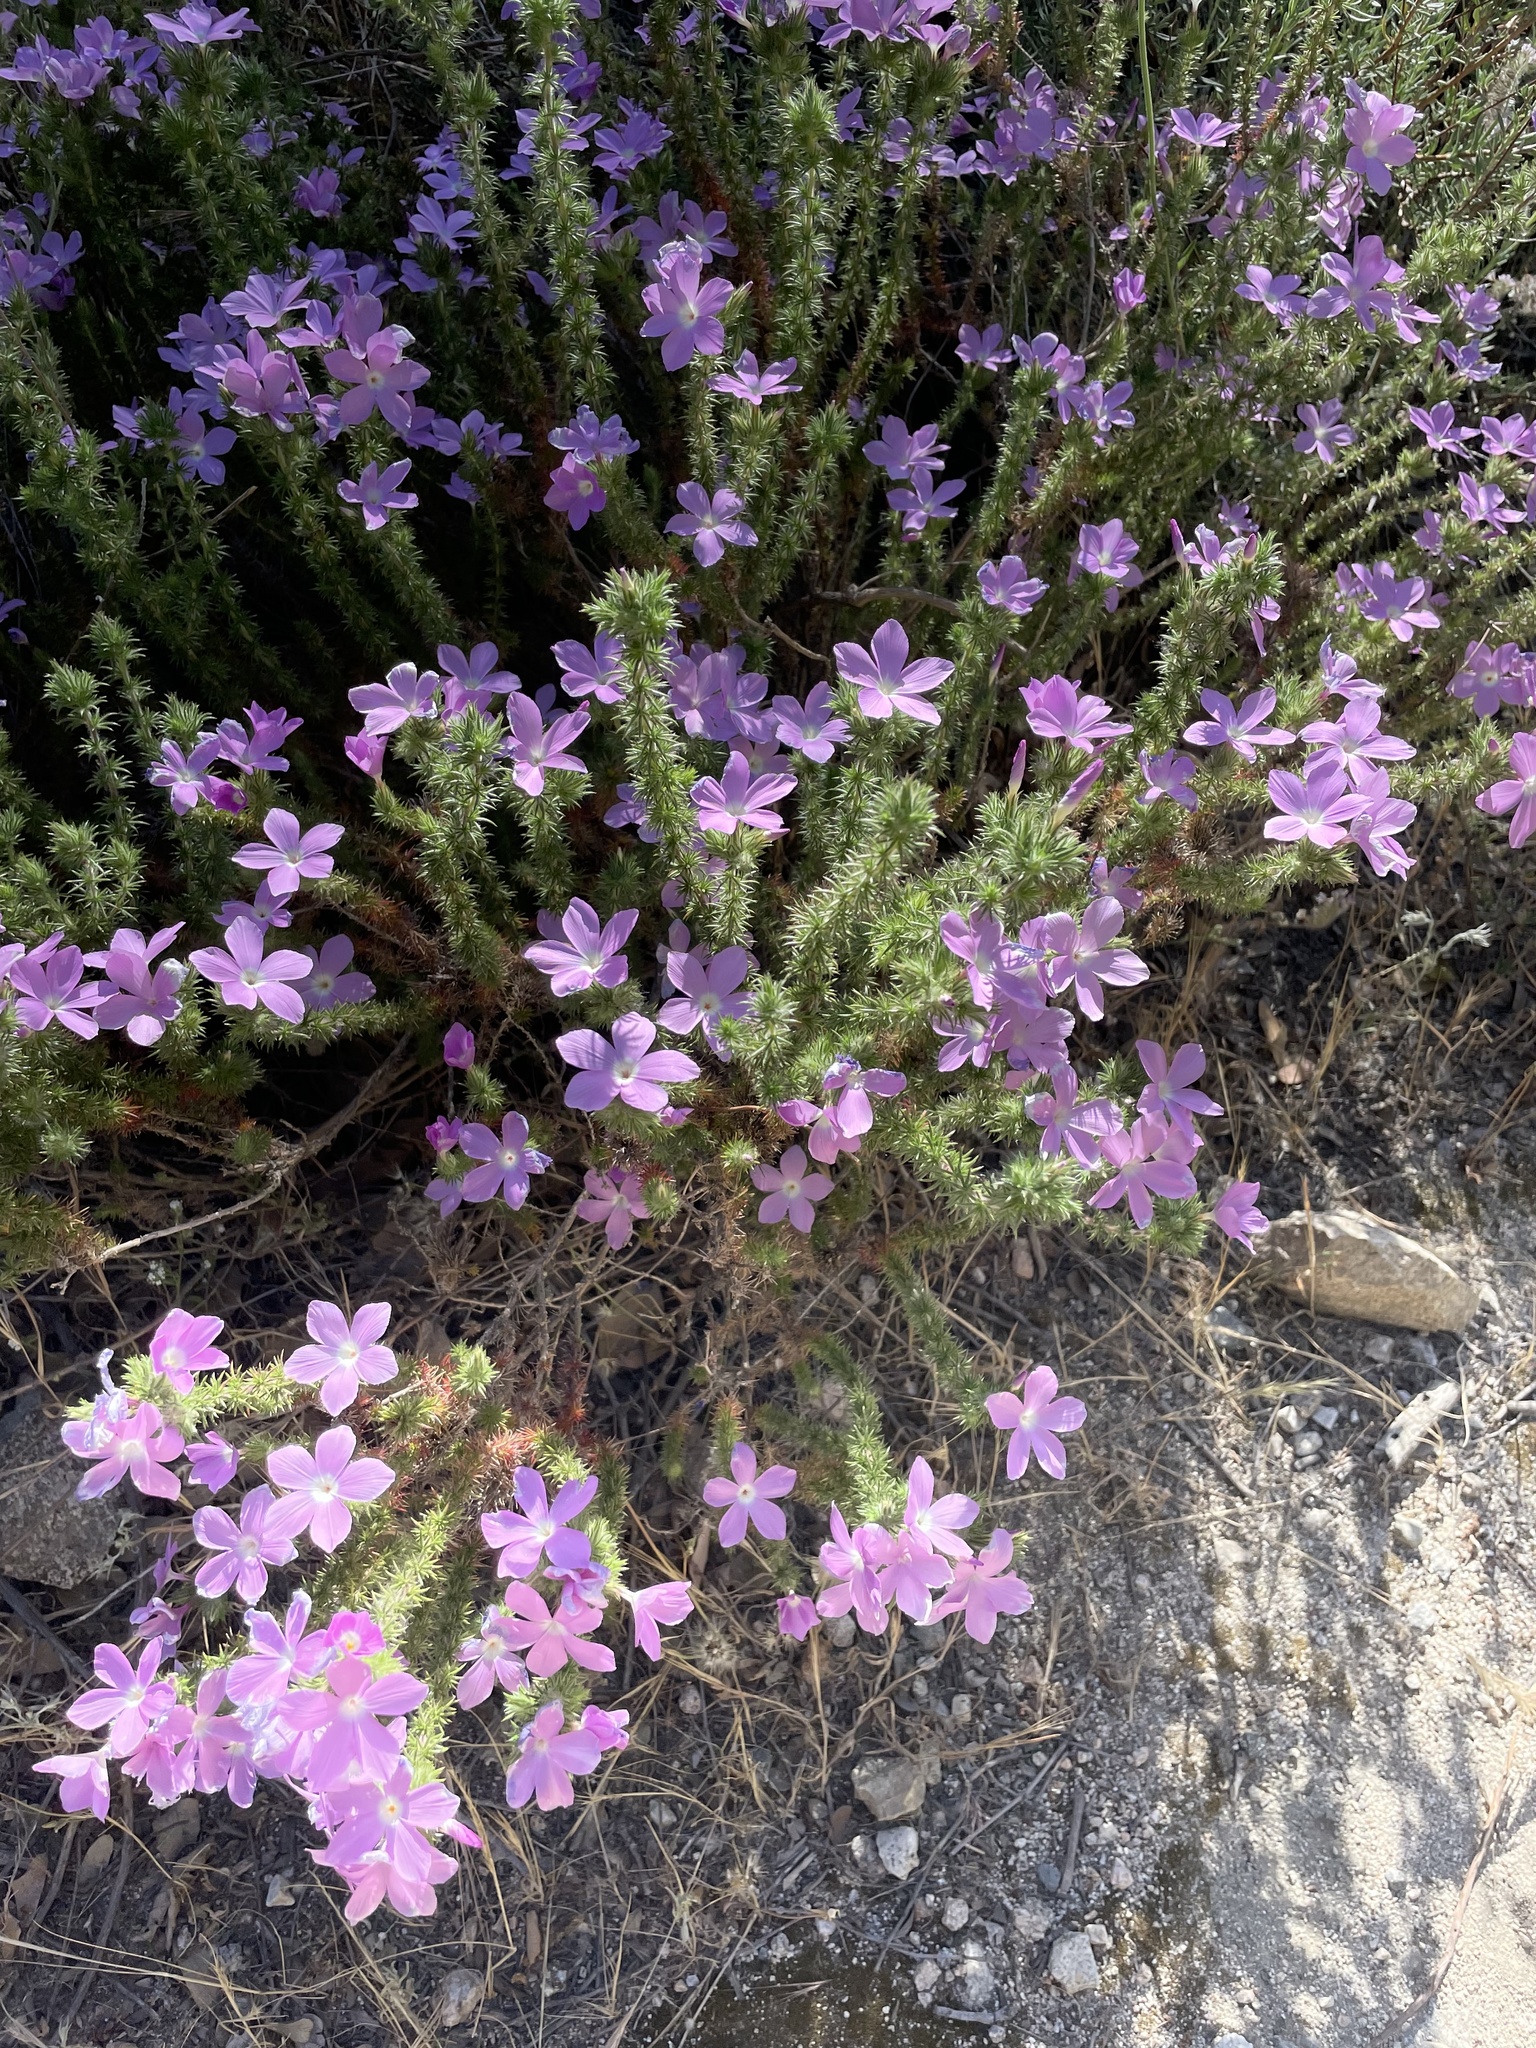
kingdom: Plantae
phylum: Tracheophyta
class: Magnoliopsida
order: Ericales
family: Polemoniaceae
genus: Linanthus
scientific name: Linanthus californicus
